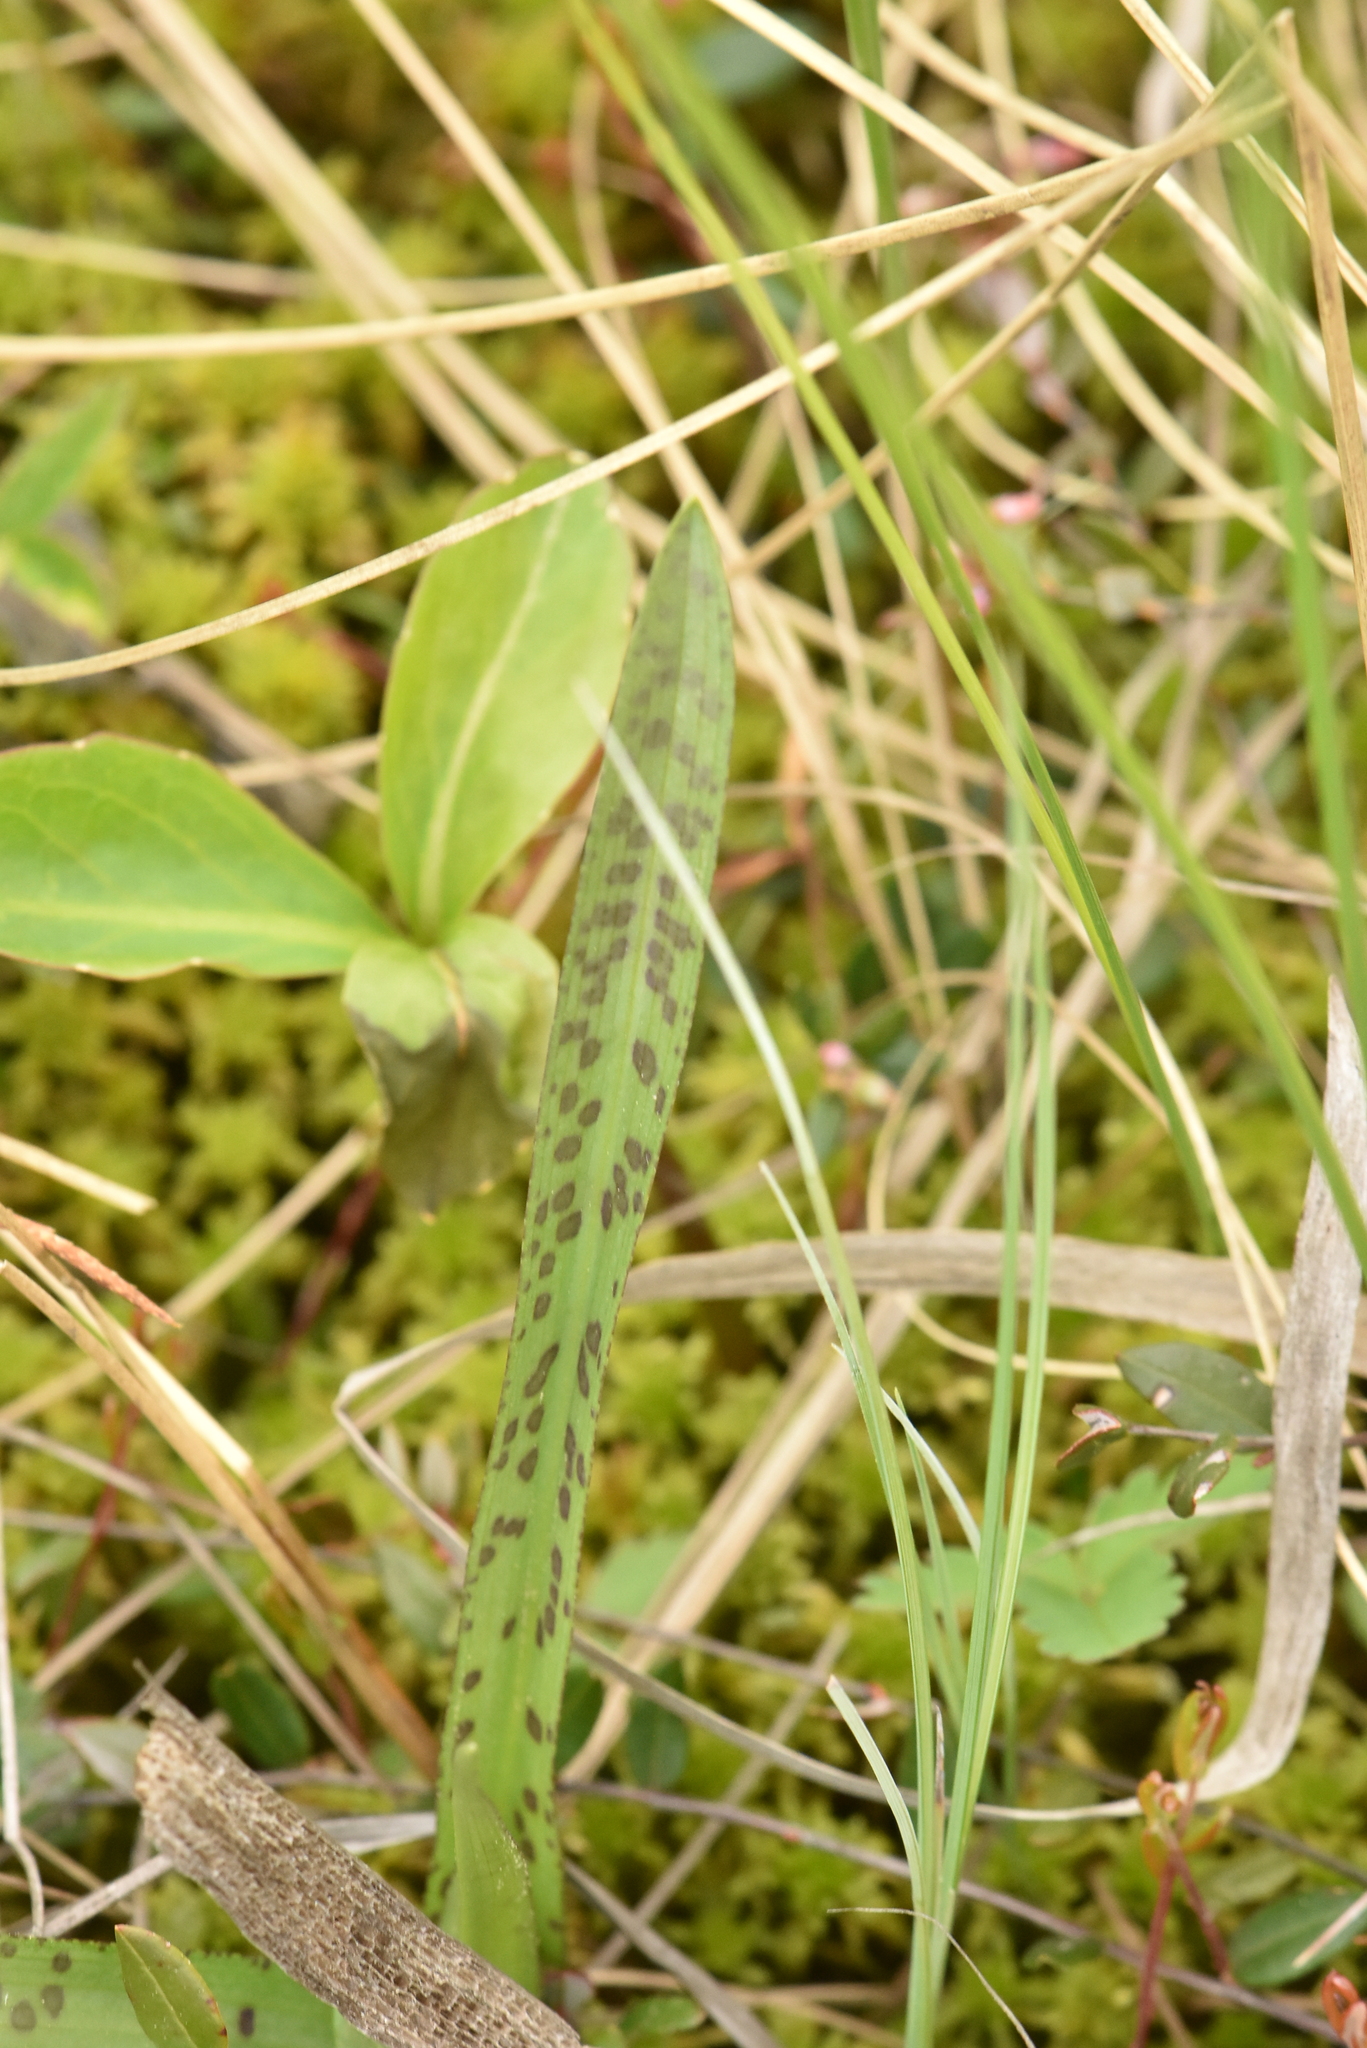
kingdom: Plantae
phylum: Tracheophyta
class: Liliopsida
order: Asparagales
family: Orchidaceae
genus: Dactylorhiza
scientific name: Dactylorhiza maculata
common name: Heath spotted-orchid
